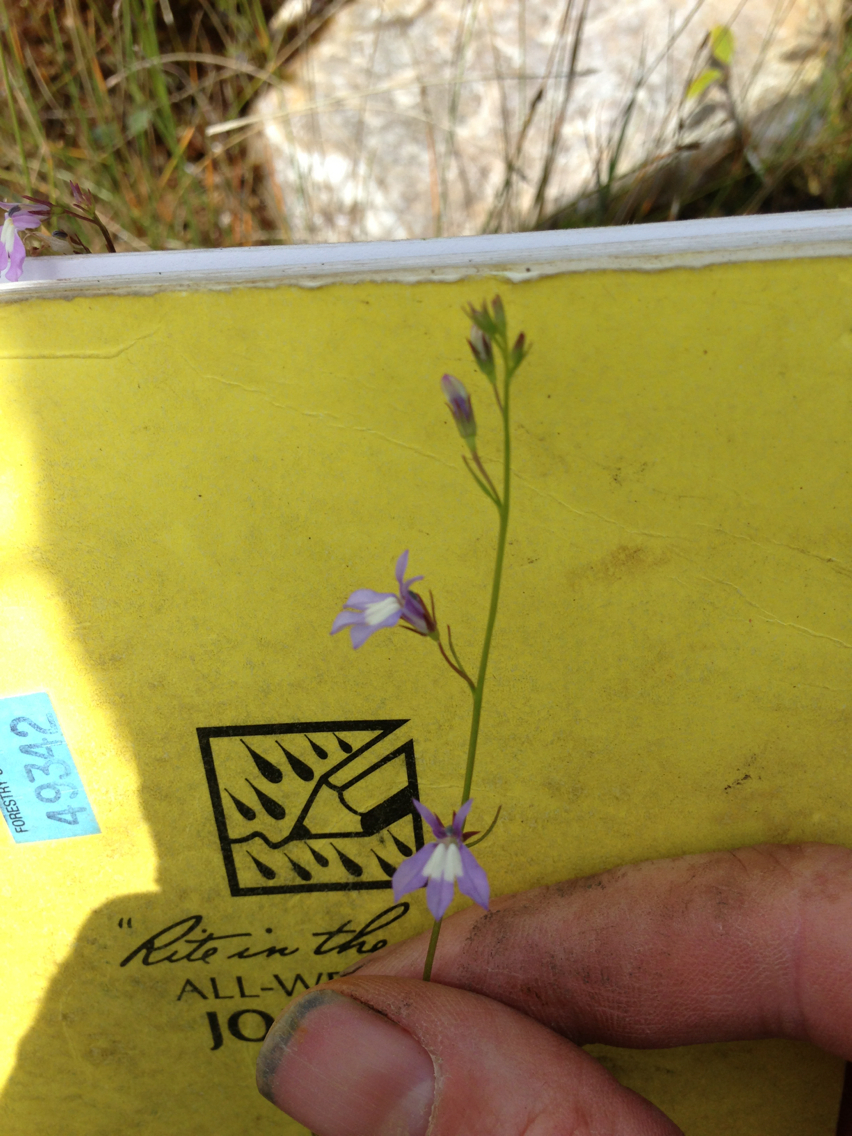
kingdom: Plantae
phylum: Tracheophyta
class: Magnoliopsida
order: Asterales
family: Campanulaceae
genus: Lobelia
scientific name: Lobelia kalmii
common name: Kalm's lobelia
